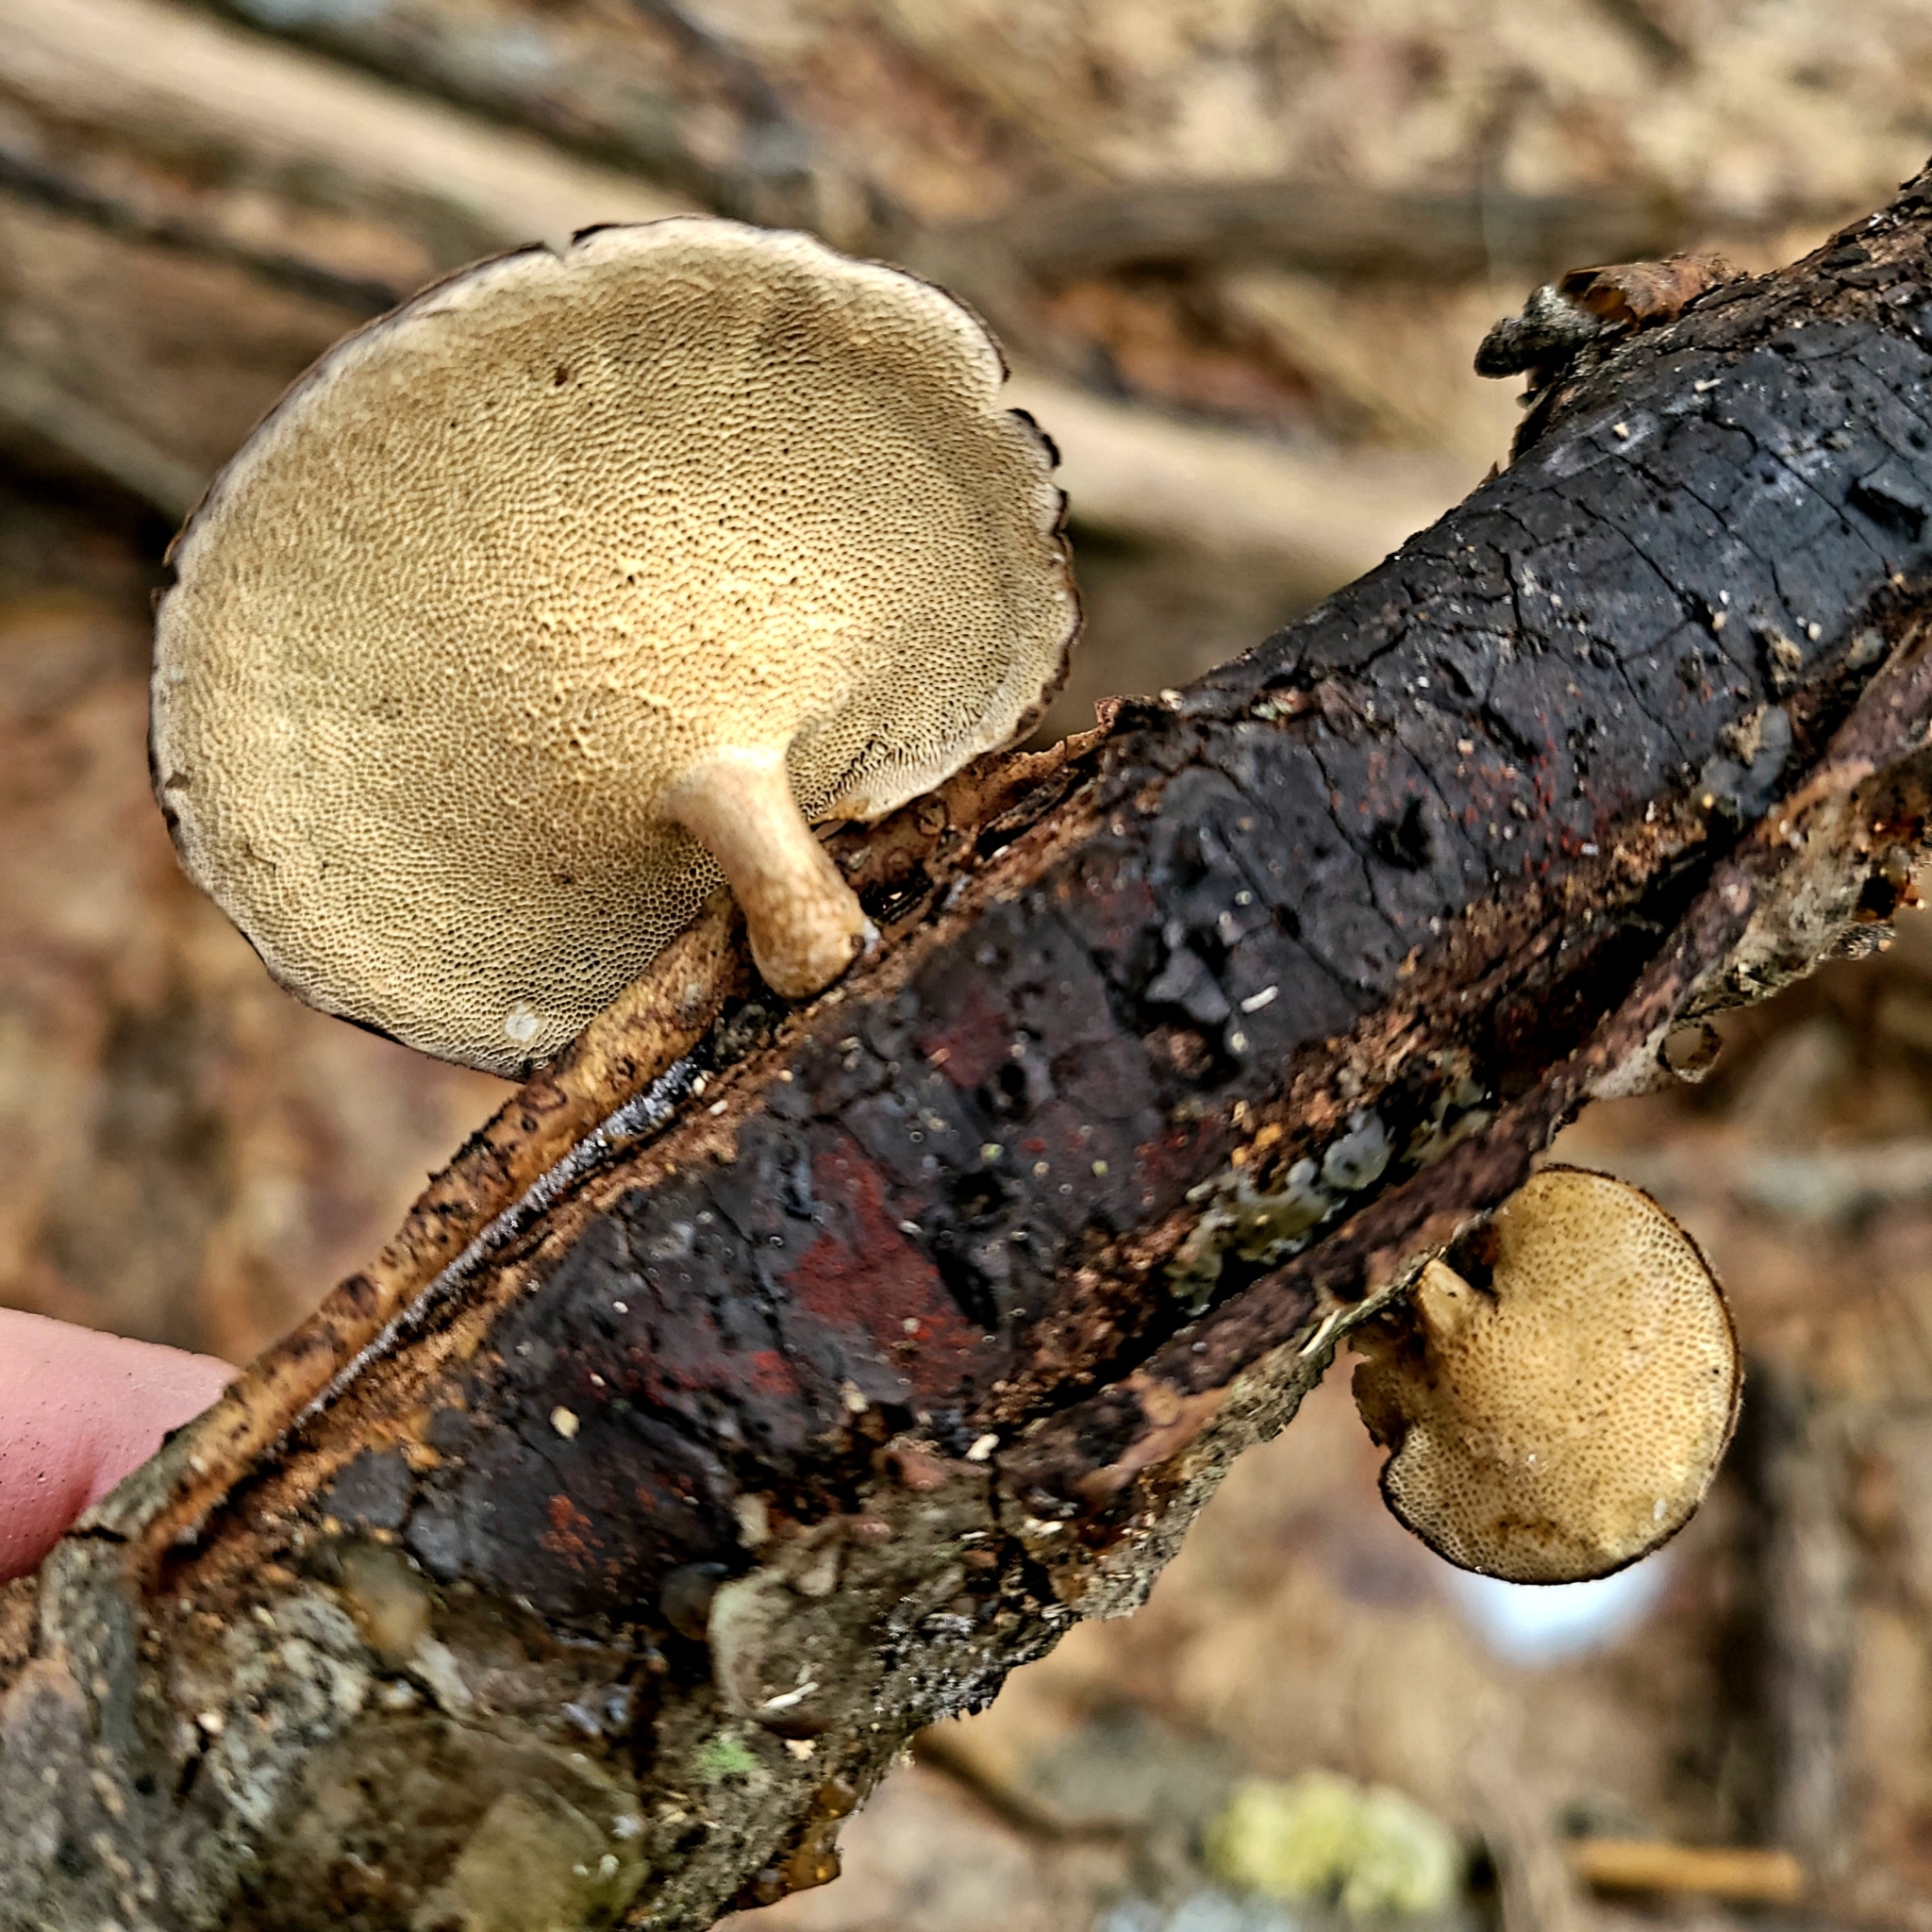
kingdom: Fungi
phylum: Basidiomycota
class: Agaricomycetes
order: Polyporales
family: Polyporaceae
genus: Lentinus
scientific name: Lentinus brumalis
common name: Winter polypore
